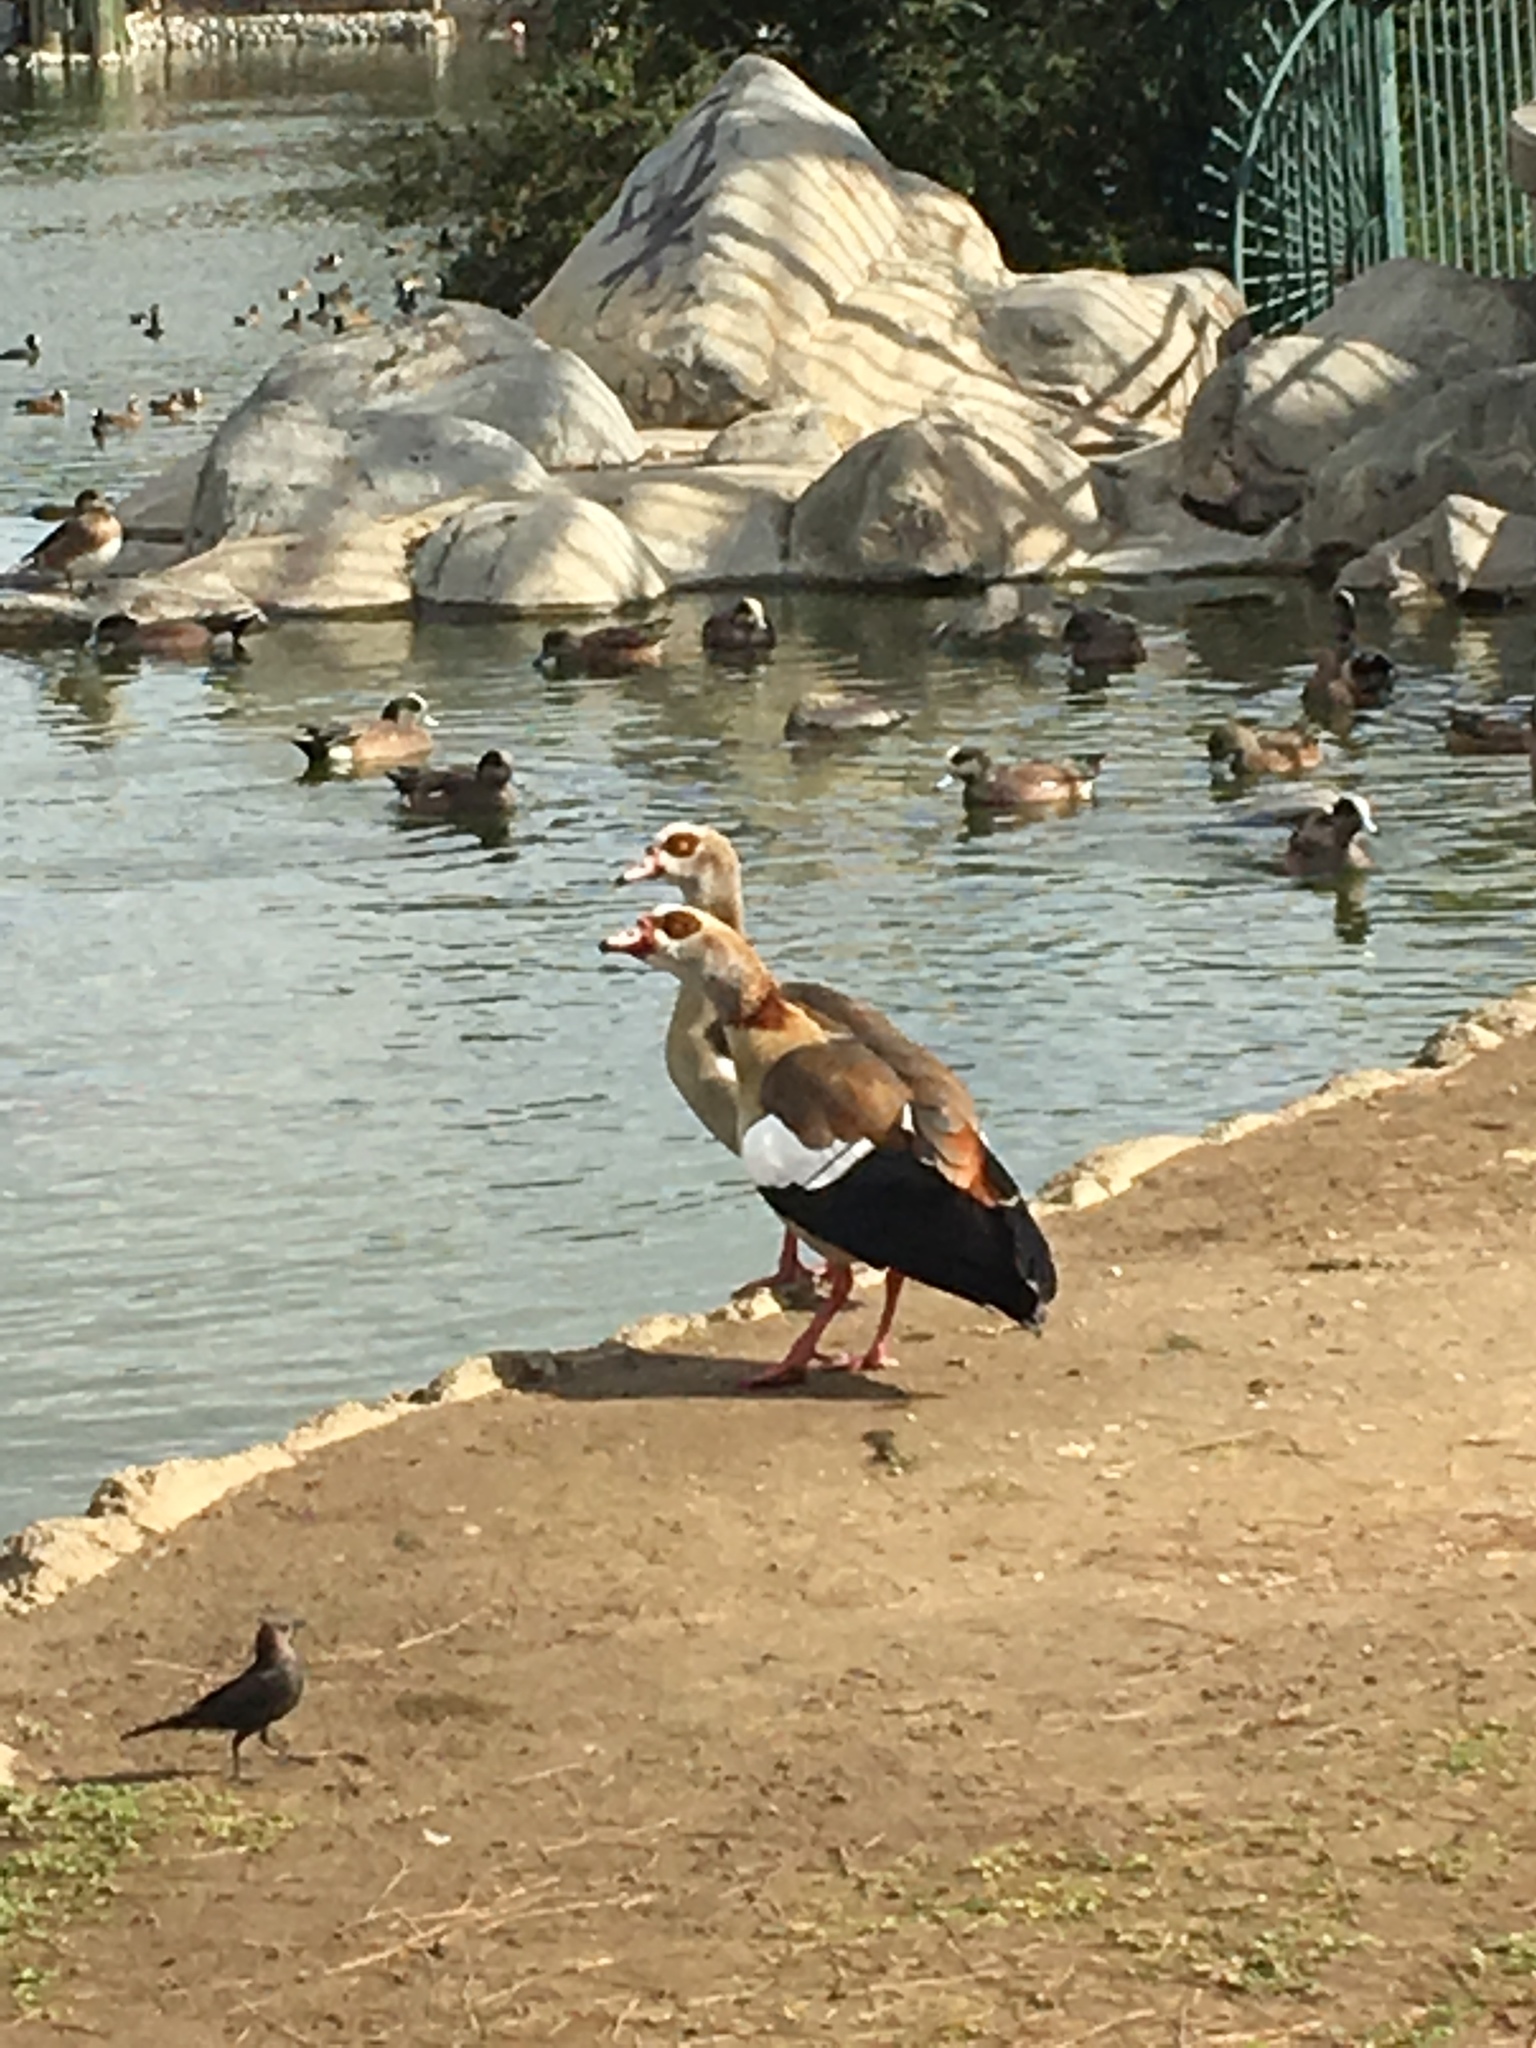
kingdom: Animalia
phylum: Chordata
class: Aves
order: Anseriformes
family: Anatidae
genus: Alopochen
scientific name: Alopochen aegyptiaca
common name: Egyptian goose
